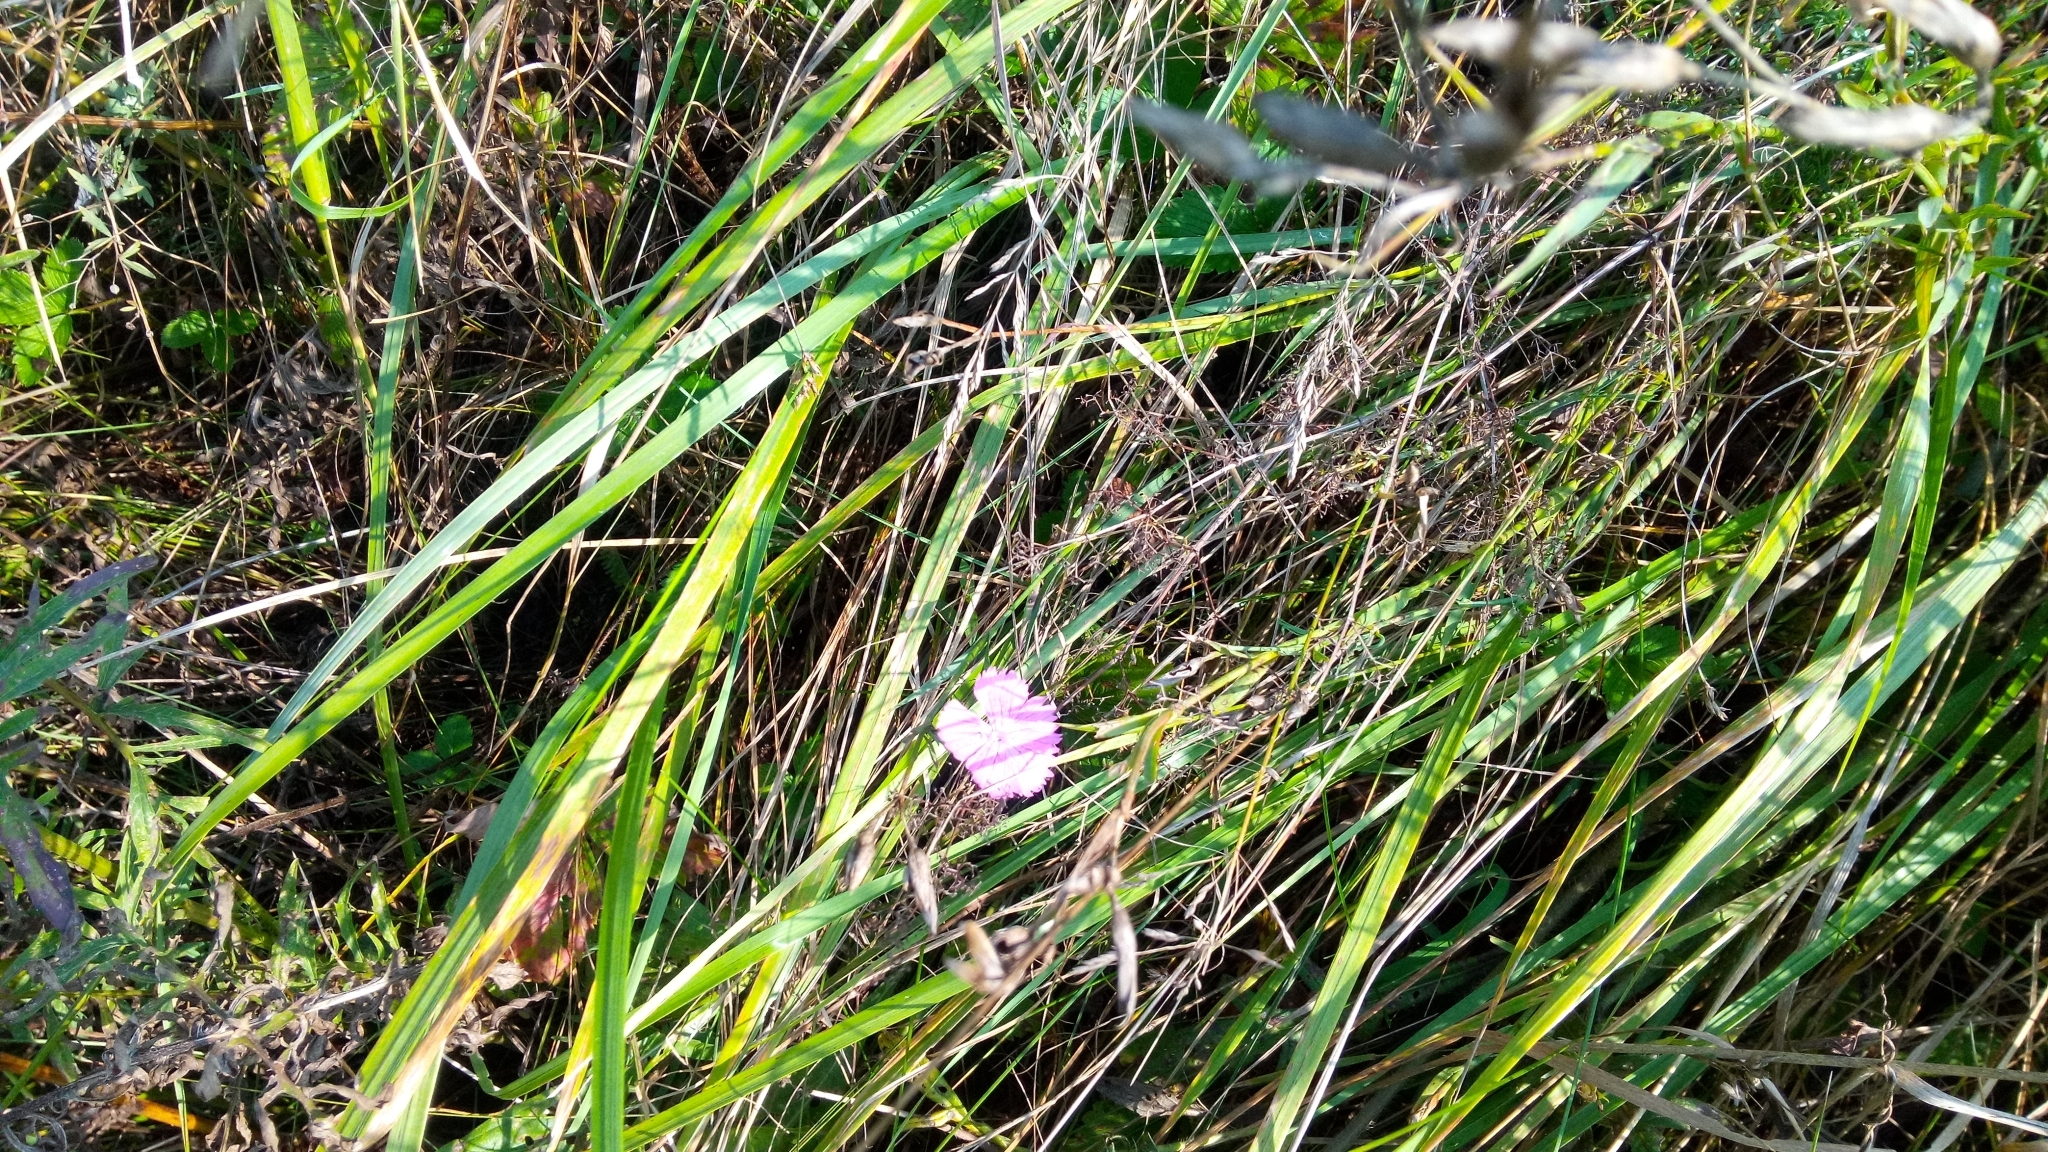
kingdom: Plantae
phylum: Tracheophyta
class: Magnoliopsida
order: Caryophyllales
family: Caryophyllaceae
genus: Dianthus
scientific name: Dianthus chinensis
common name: Rainbow pink
